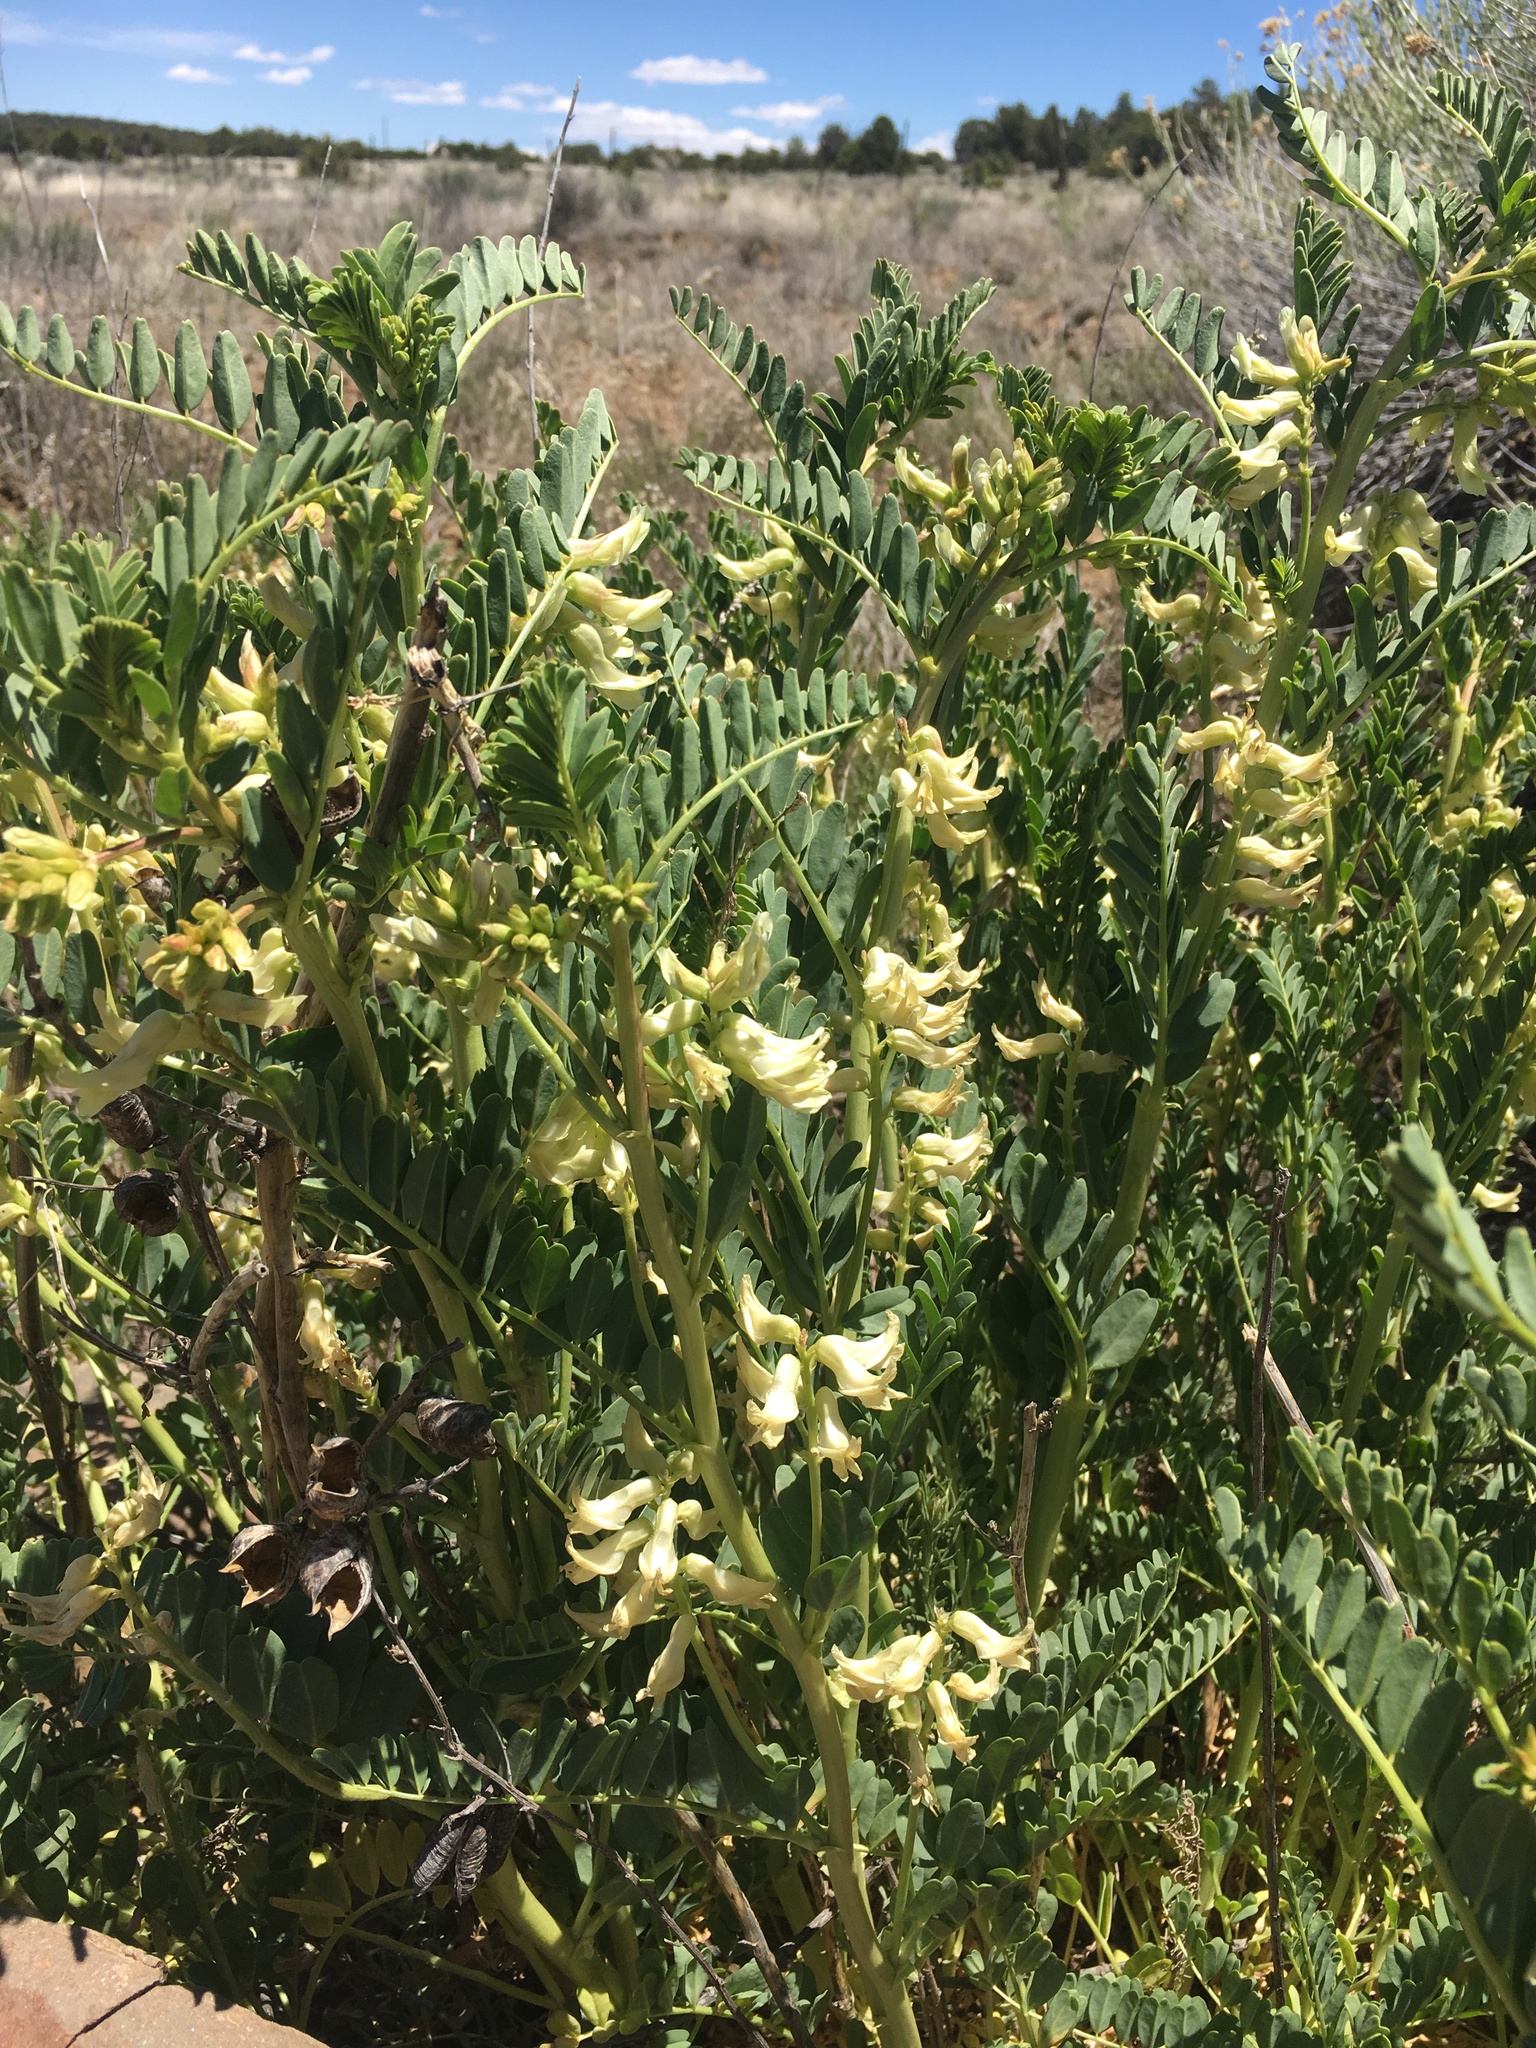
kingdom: Plantae
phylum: Tracheophyta
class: Magnoliopsida
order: Fabales
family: Fabaceae
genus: Astragalus
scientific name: Astragalus praelongus
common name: Stinking milk-vetch
